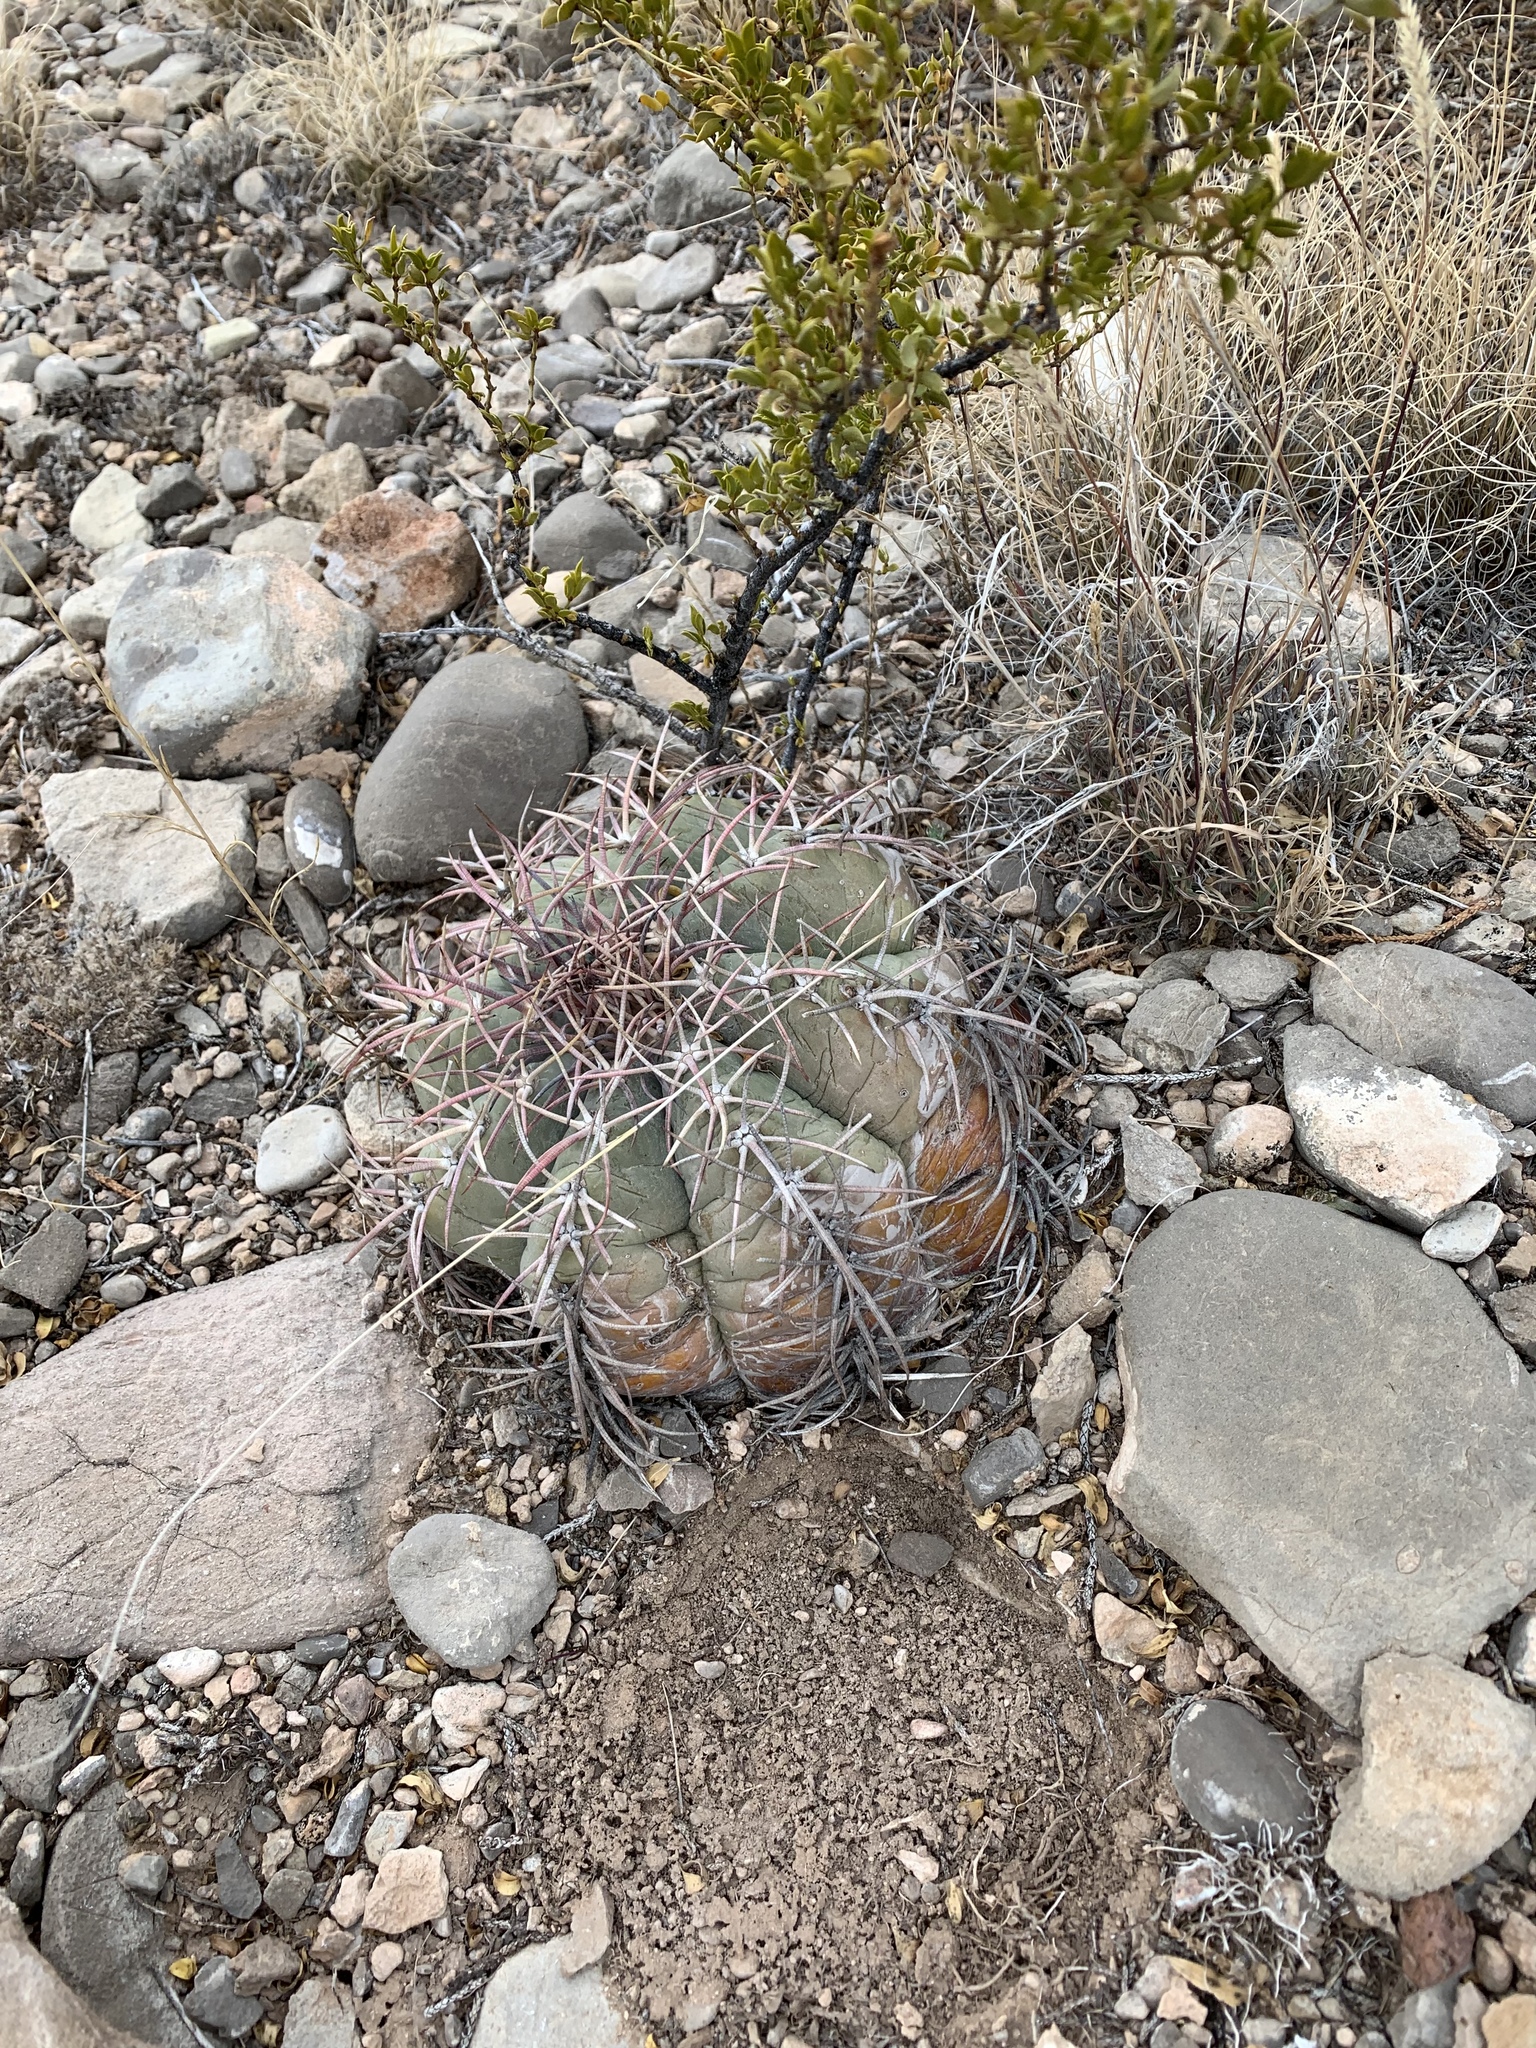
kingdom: Plantae
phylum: Tracheophyta
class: Magnoliopsida
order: Caryophyllales
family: Cactaceae
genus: Echinocactus
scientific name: Echinocactus horizonthalonius
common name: Devilshead
